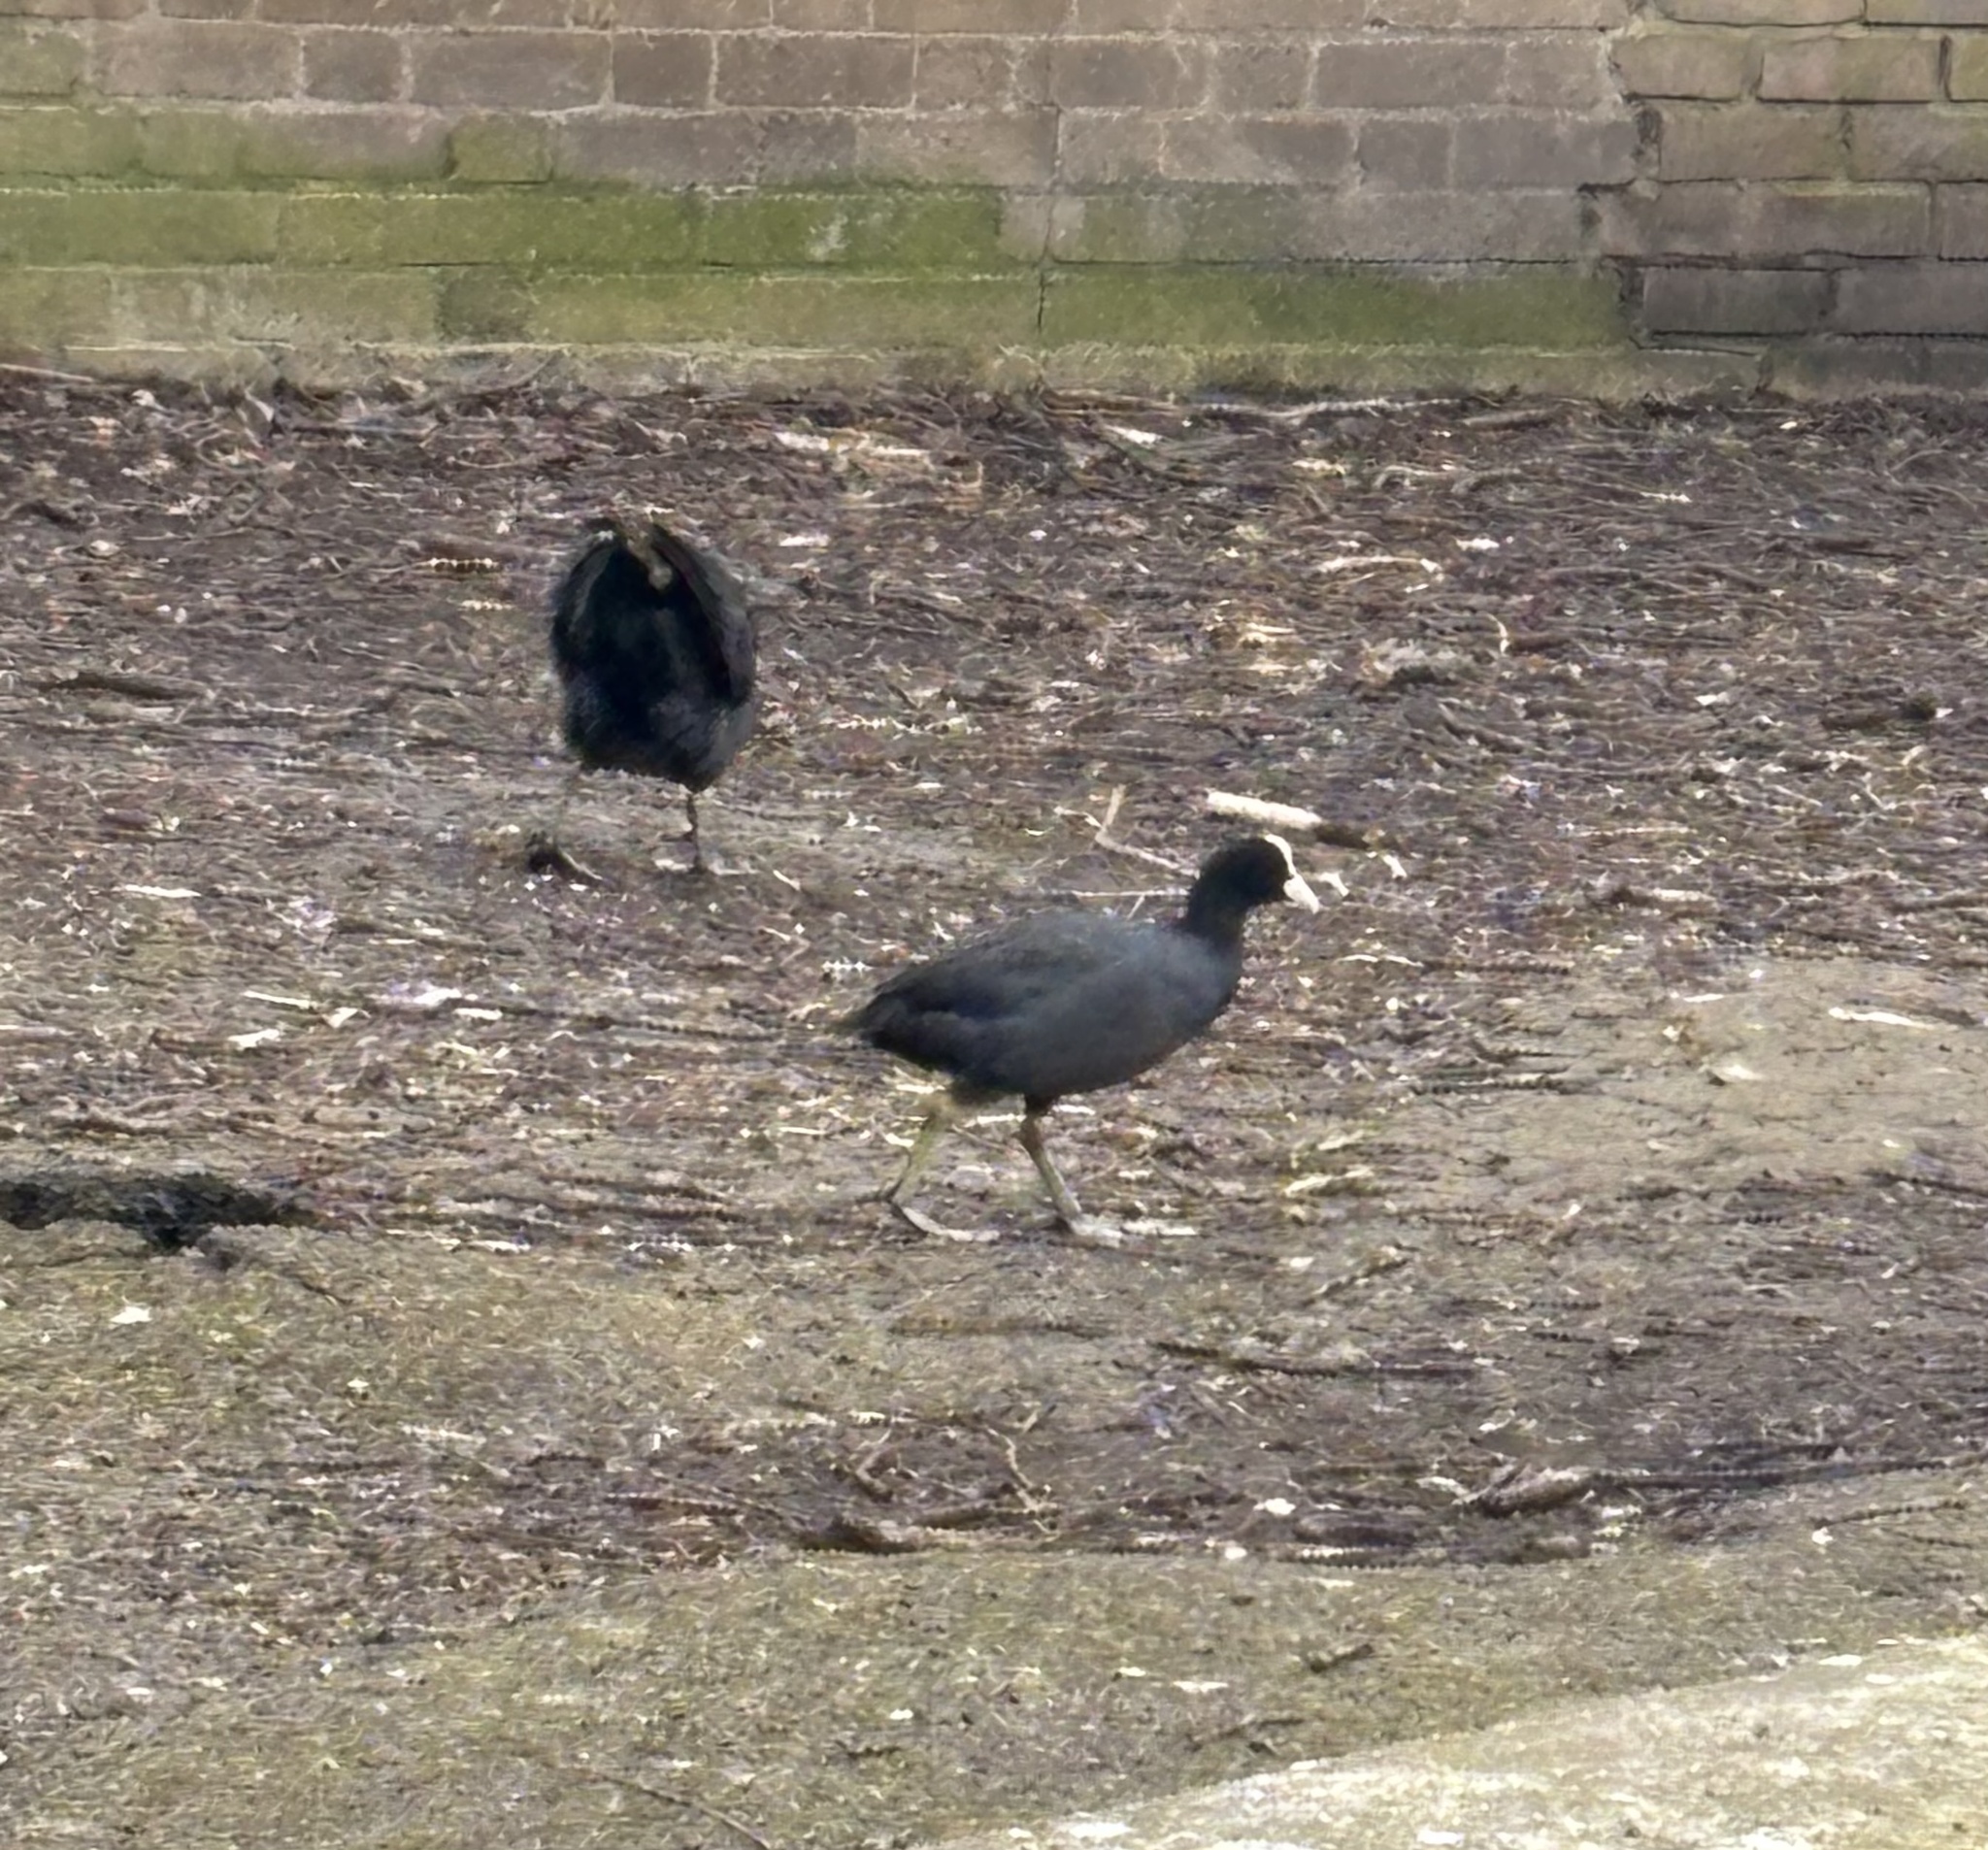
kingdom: Animalia
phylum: Chordata
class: Aves
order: Gruiformes
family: Rallidae
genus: Fulica
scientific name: Fulica atra
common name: Eurasian coot
